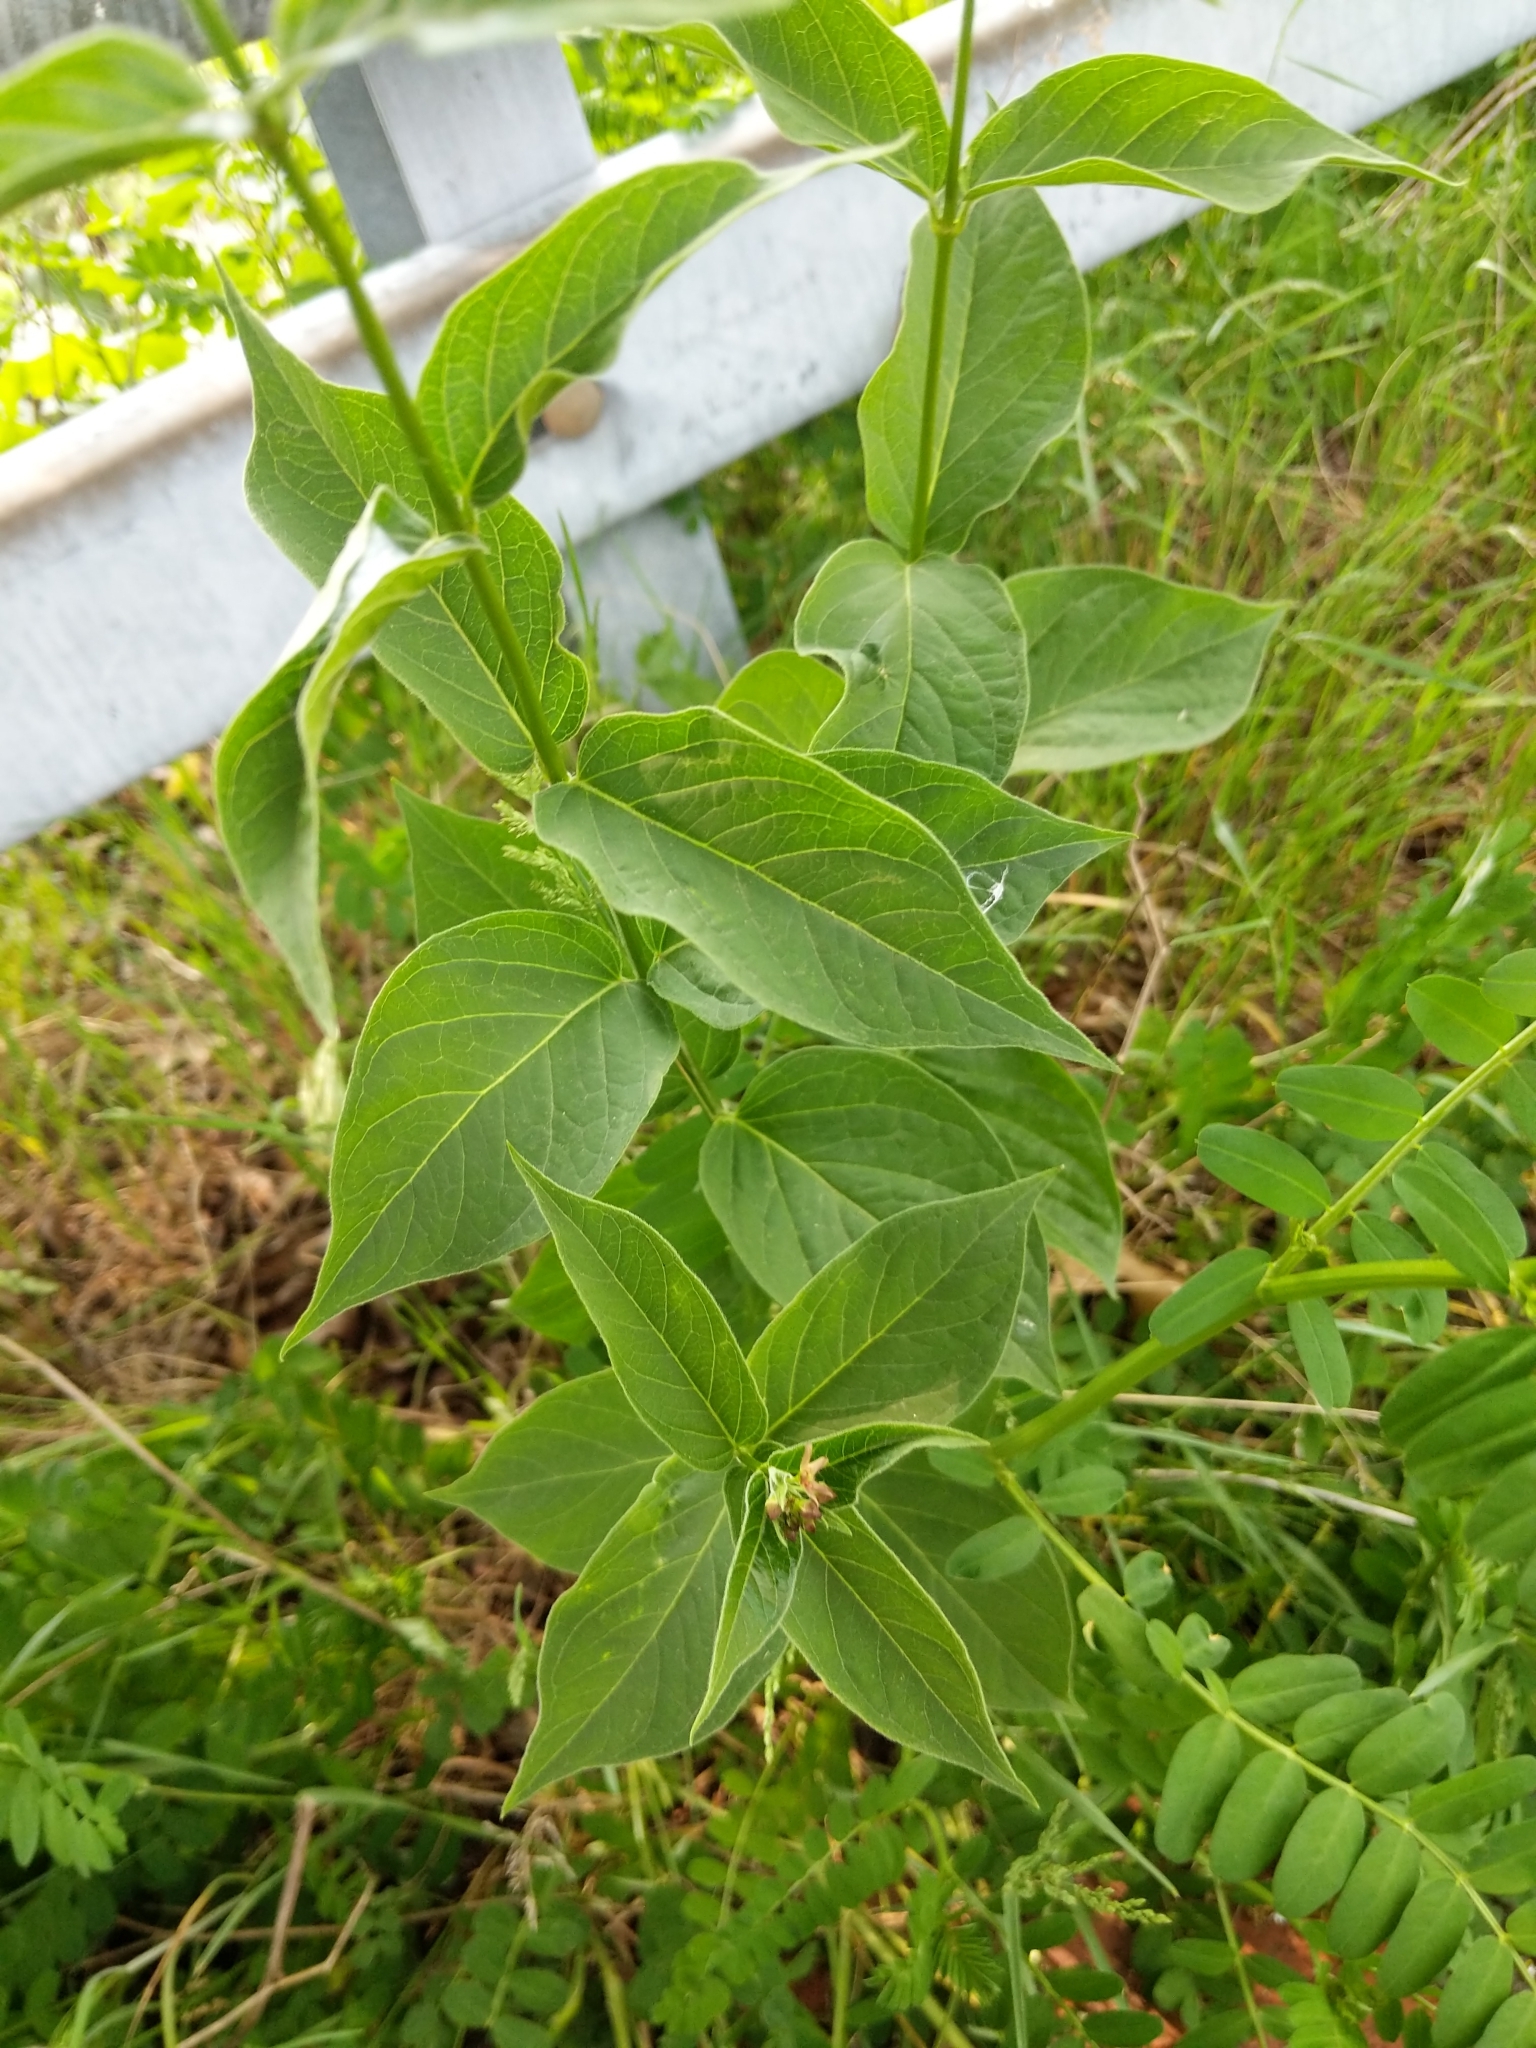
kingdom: Plantae
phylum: Tracheophyta
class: Magnoliopsida
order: Gentianales
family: Apocynaceae
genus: Vincetoxicum
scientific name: Vincetoxicum rossicum
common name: Dog-strangling vine
